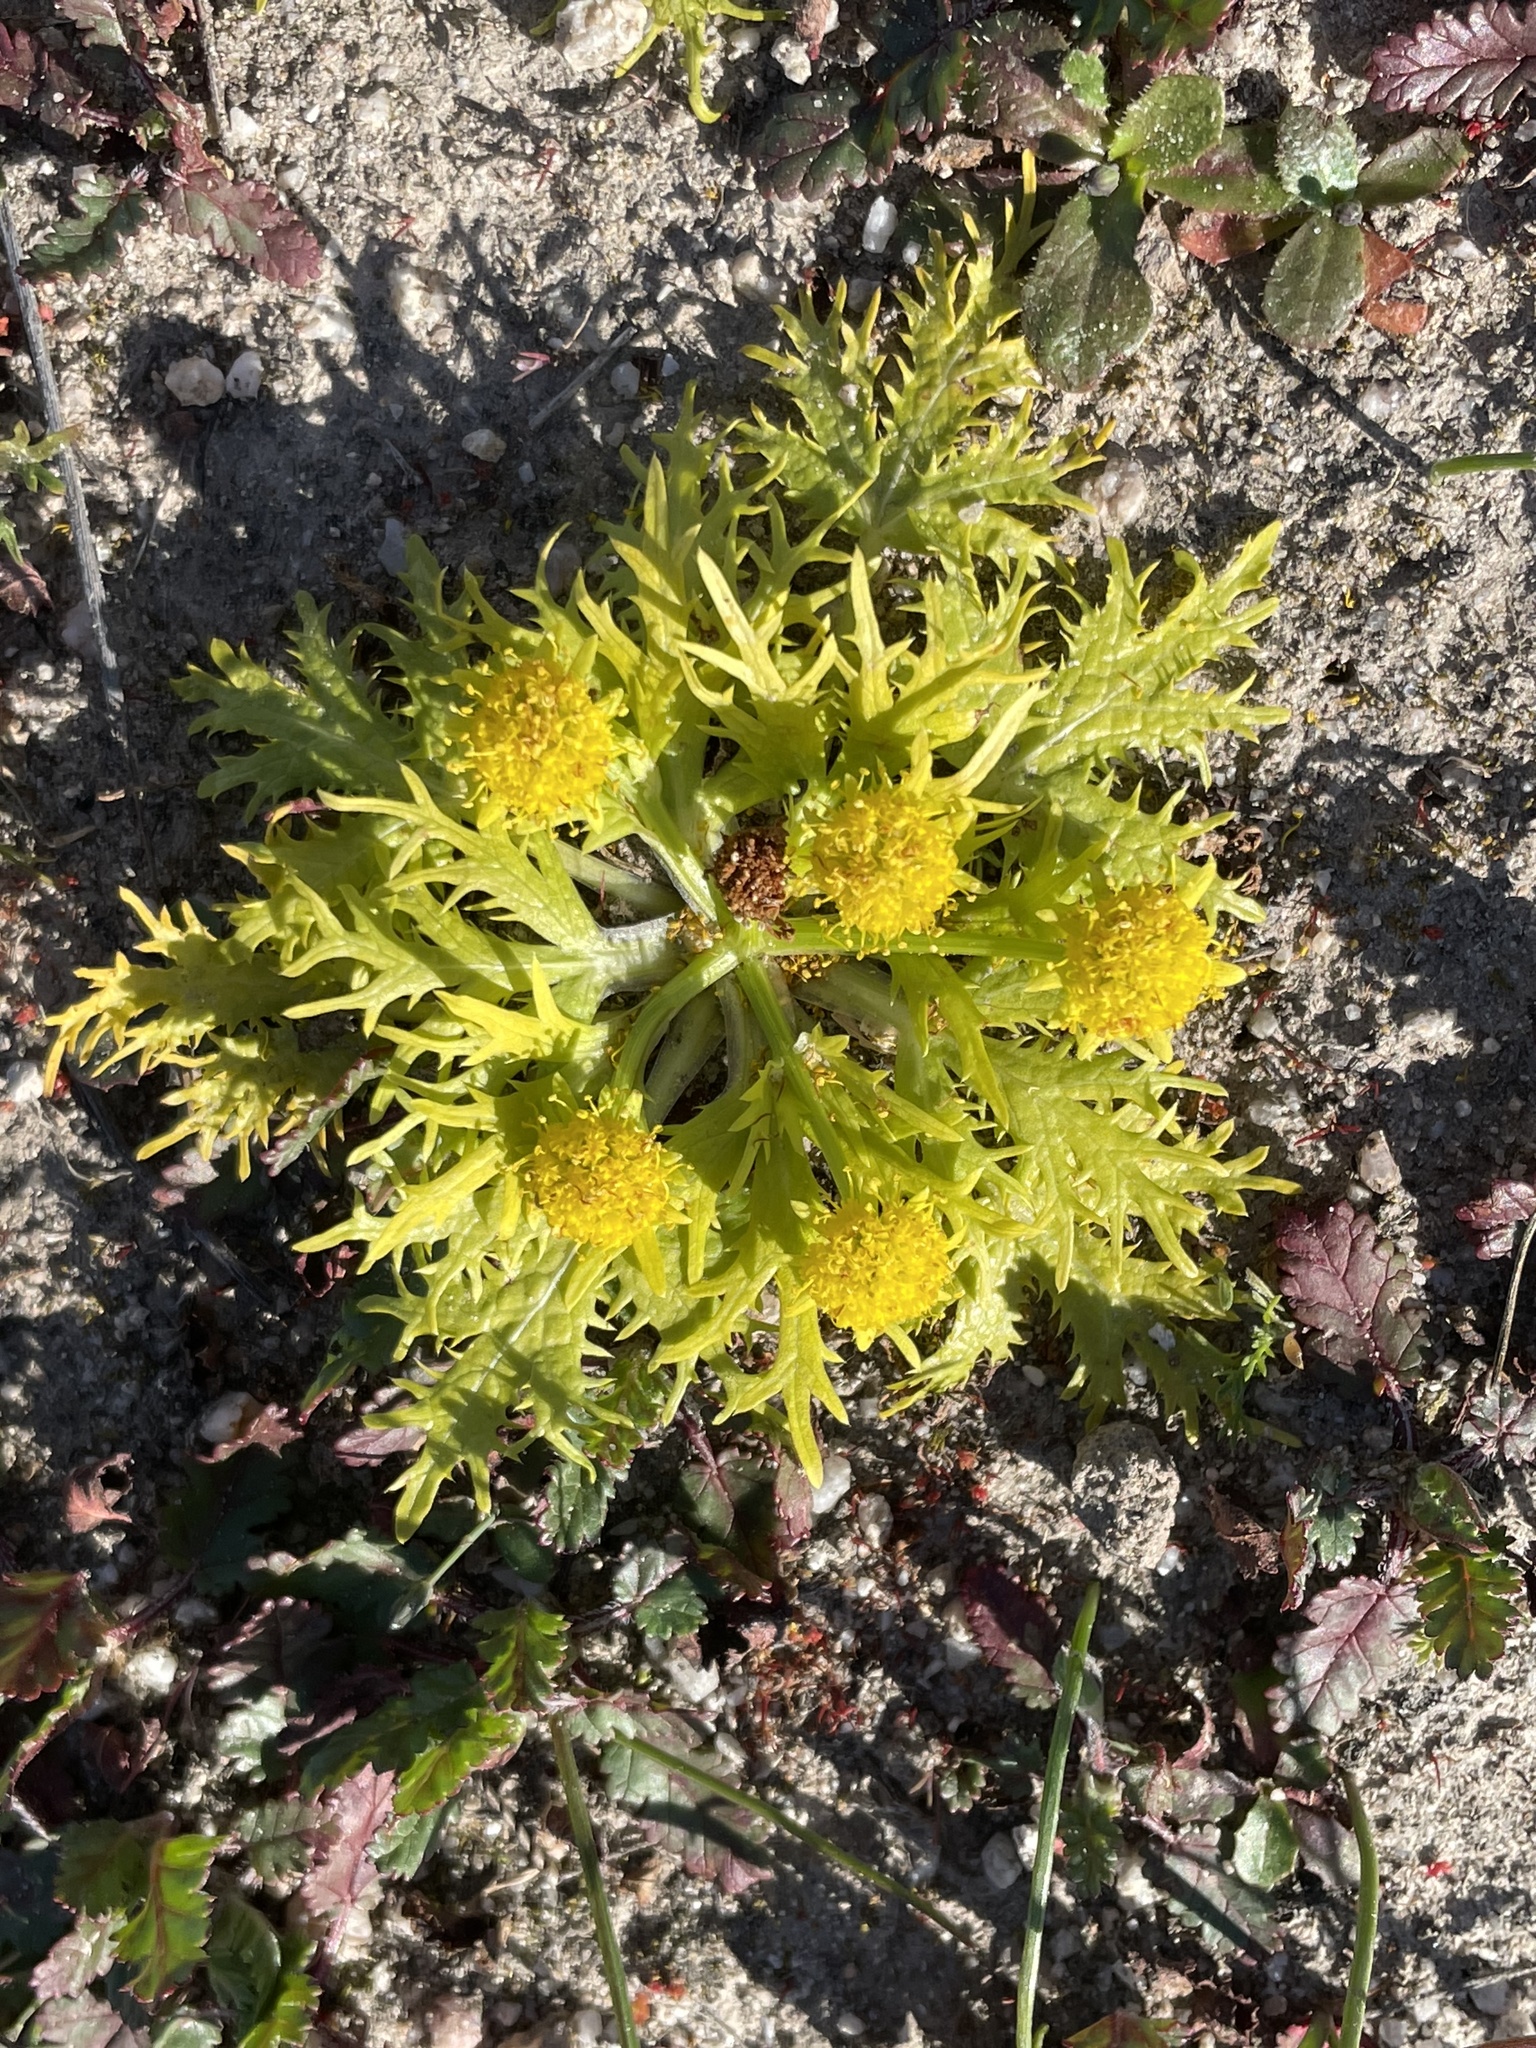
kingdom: Plantae
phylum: Tracheophyta
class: Magnoliopsida
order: Apiales
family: Apiaceae
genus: Sanicula
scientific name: Sanicula arctopoides
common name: Footsteps-of-spring
